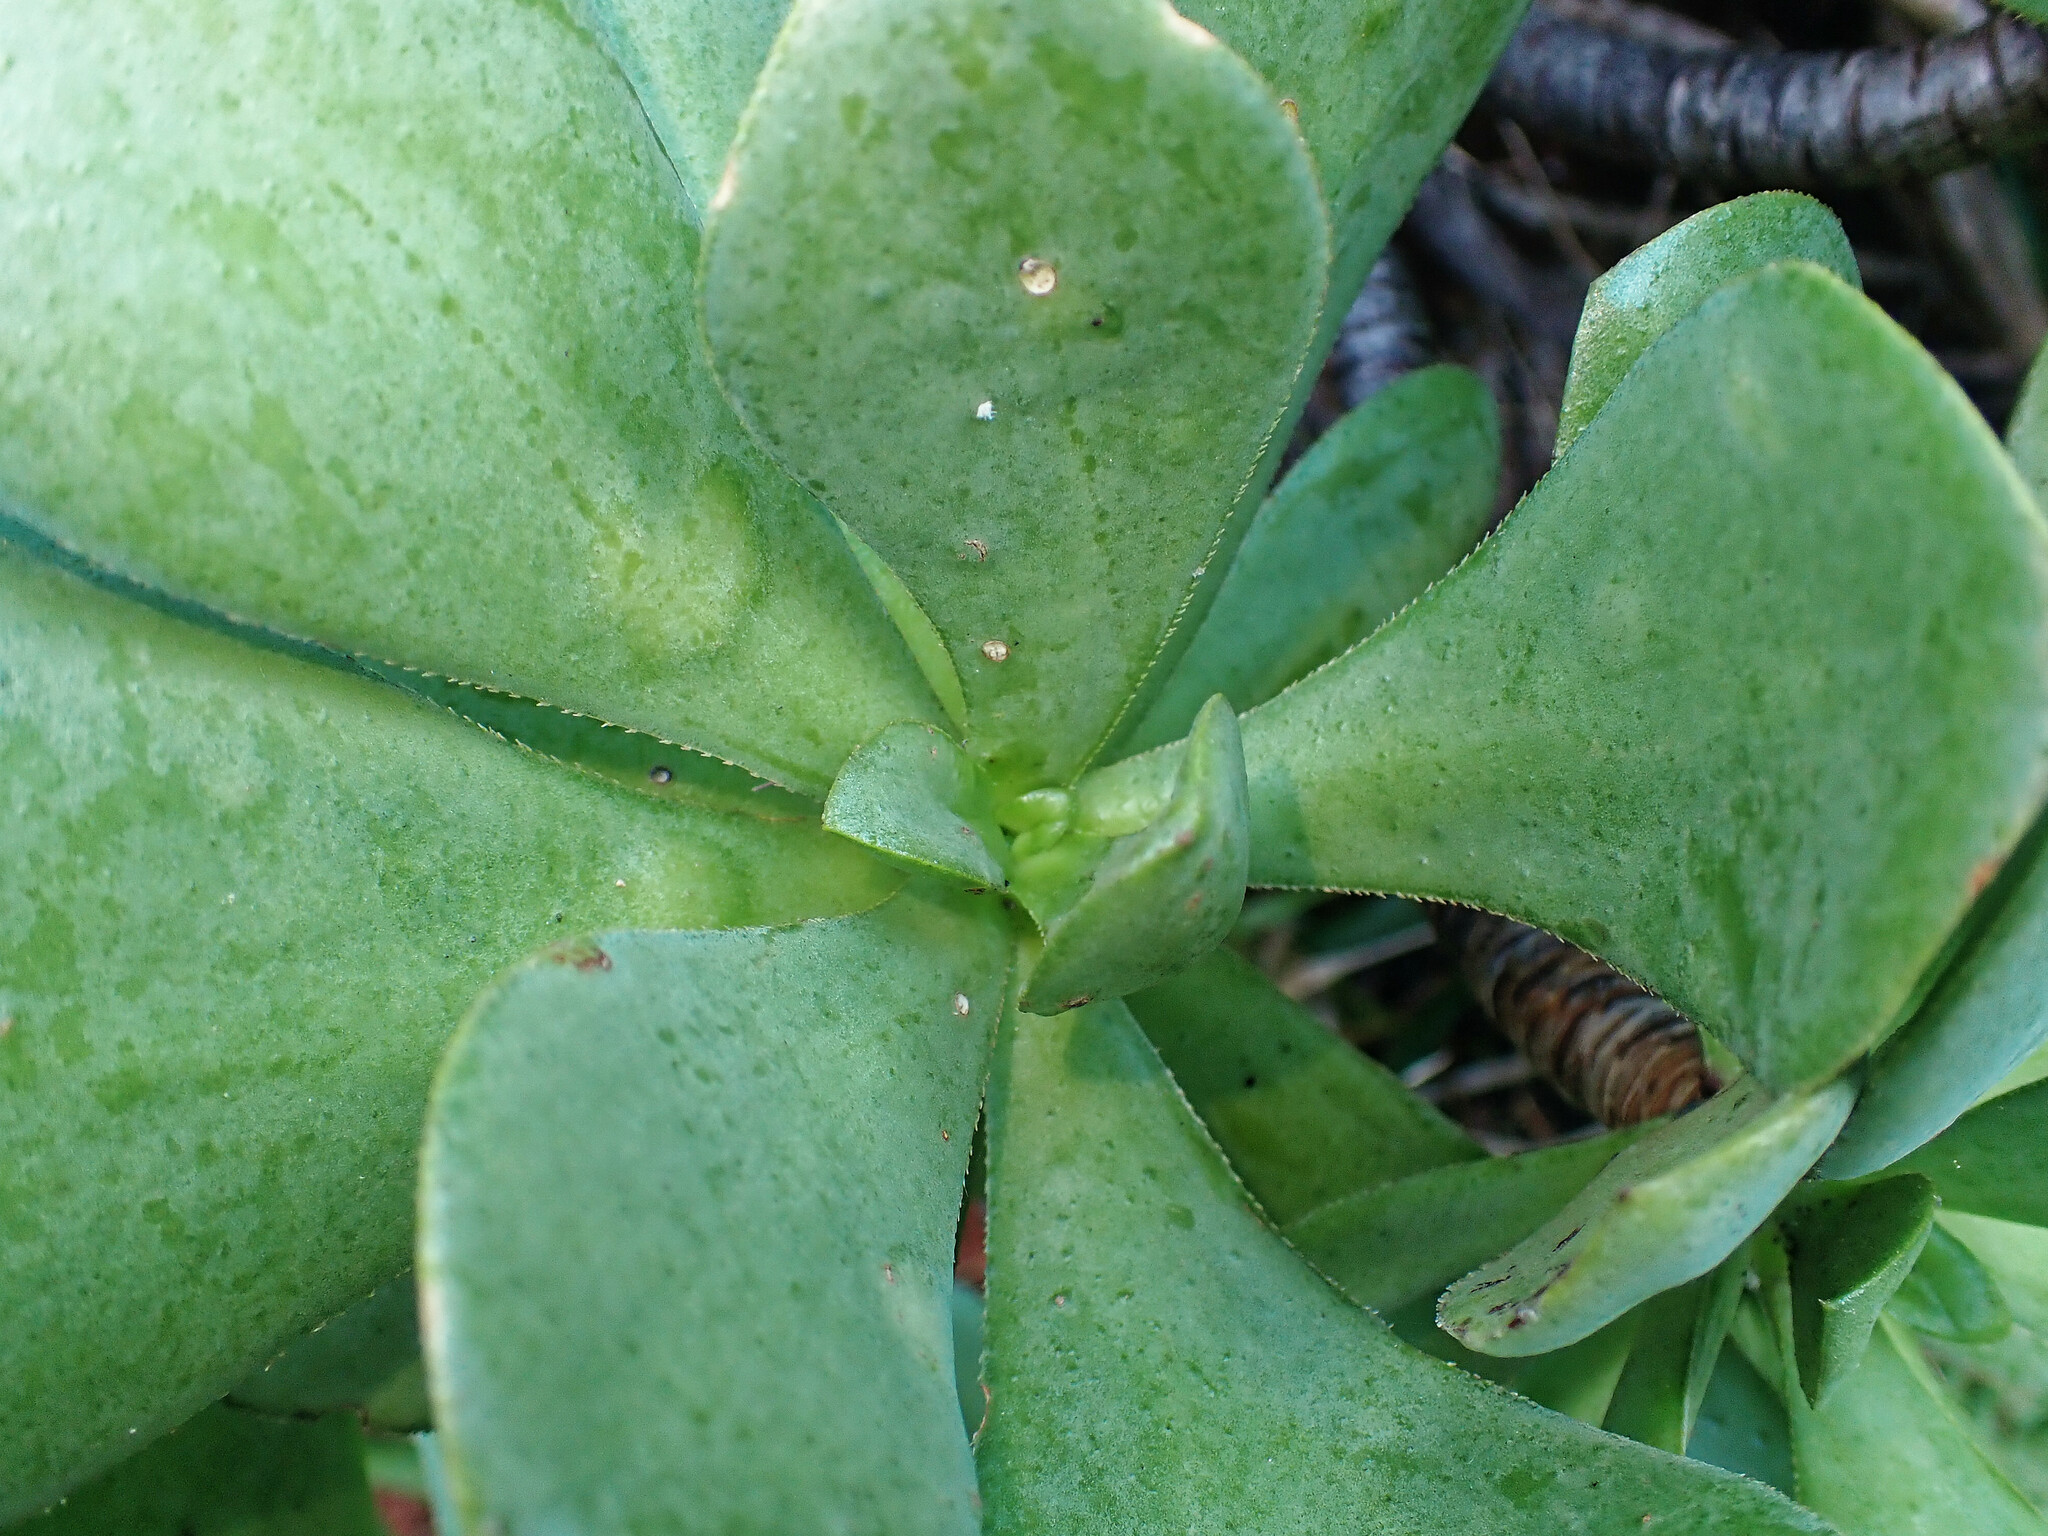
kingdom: Plantae
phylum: Tracheophyta
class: Magnoliopsida
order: Saxifragales
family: Crassulaceae
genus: Aeonium
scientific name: Aeonium glutinosum
